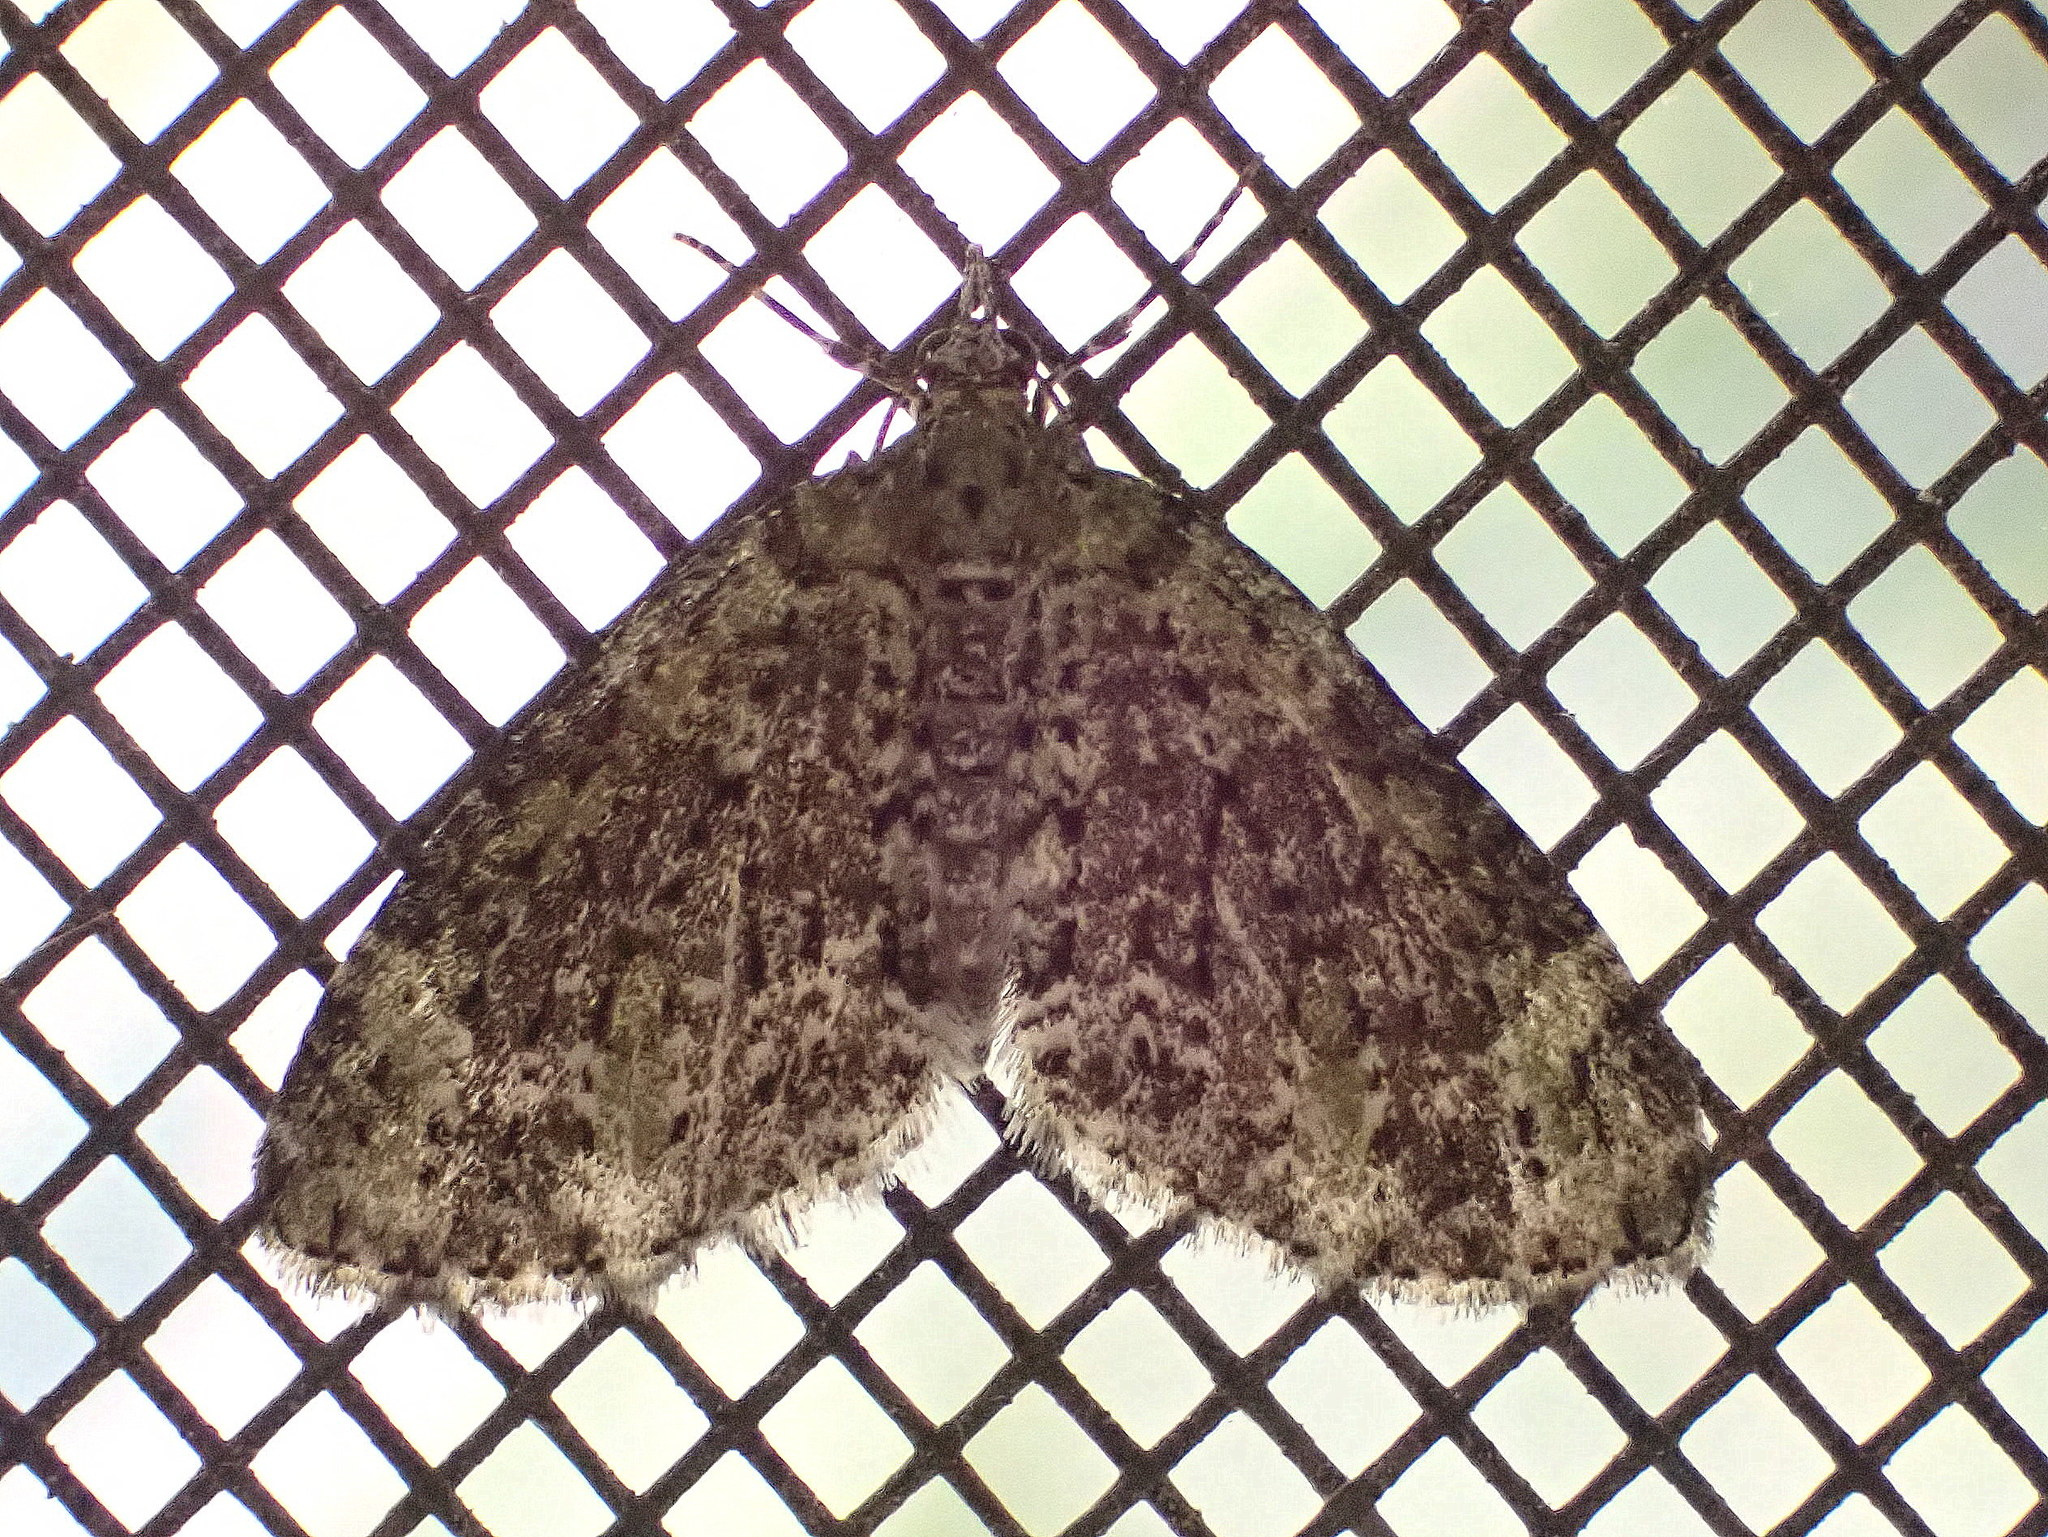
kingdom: Animalia
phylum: Arthropoda
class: Insecta
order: Lepidoptera
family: Geometridae
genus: Acasis
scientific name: Acasis viridata
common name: Olive-and-black carpet moth
